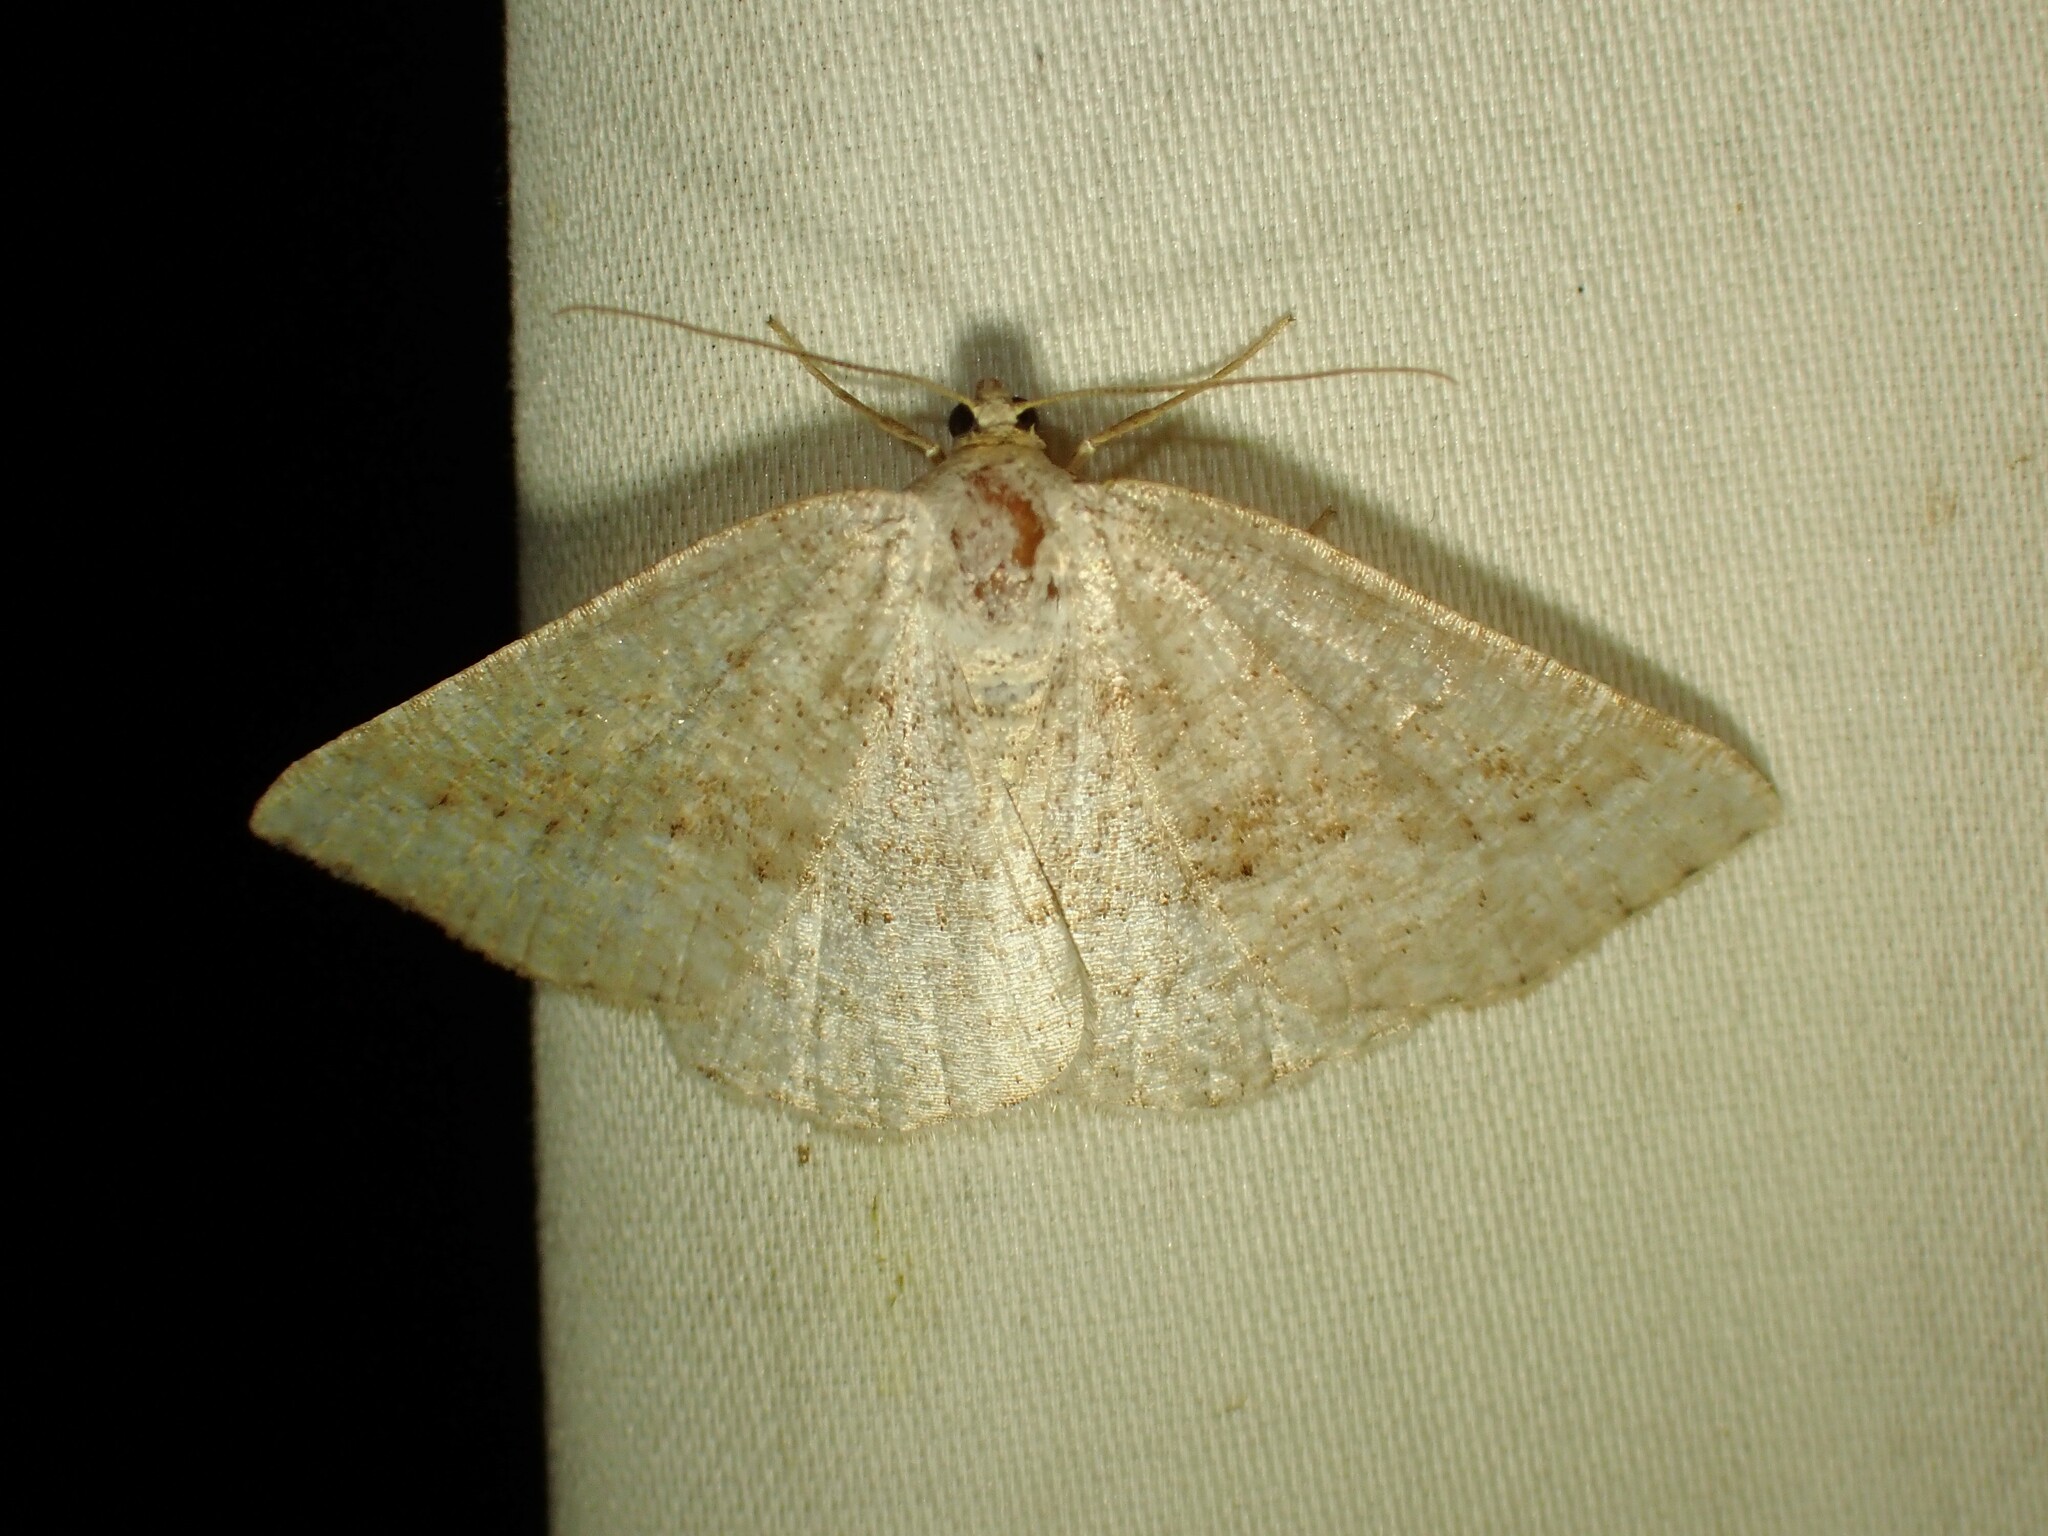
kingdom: Animalia
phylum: Arthropoda
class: Insecta
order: Lepidoptera
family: Geometridae
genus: Tacparia
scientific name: Tacparia detersata
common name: Pale alder moth
